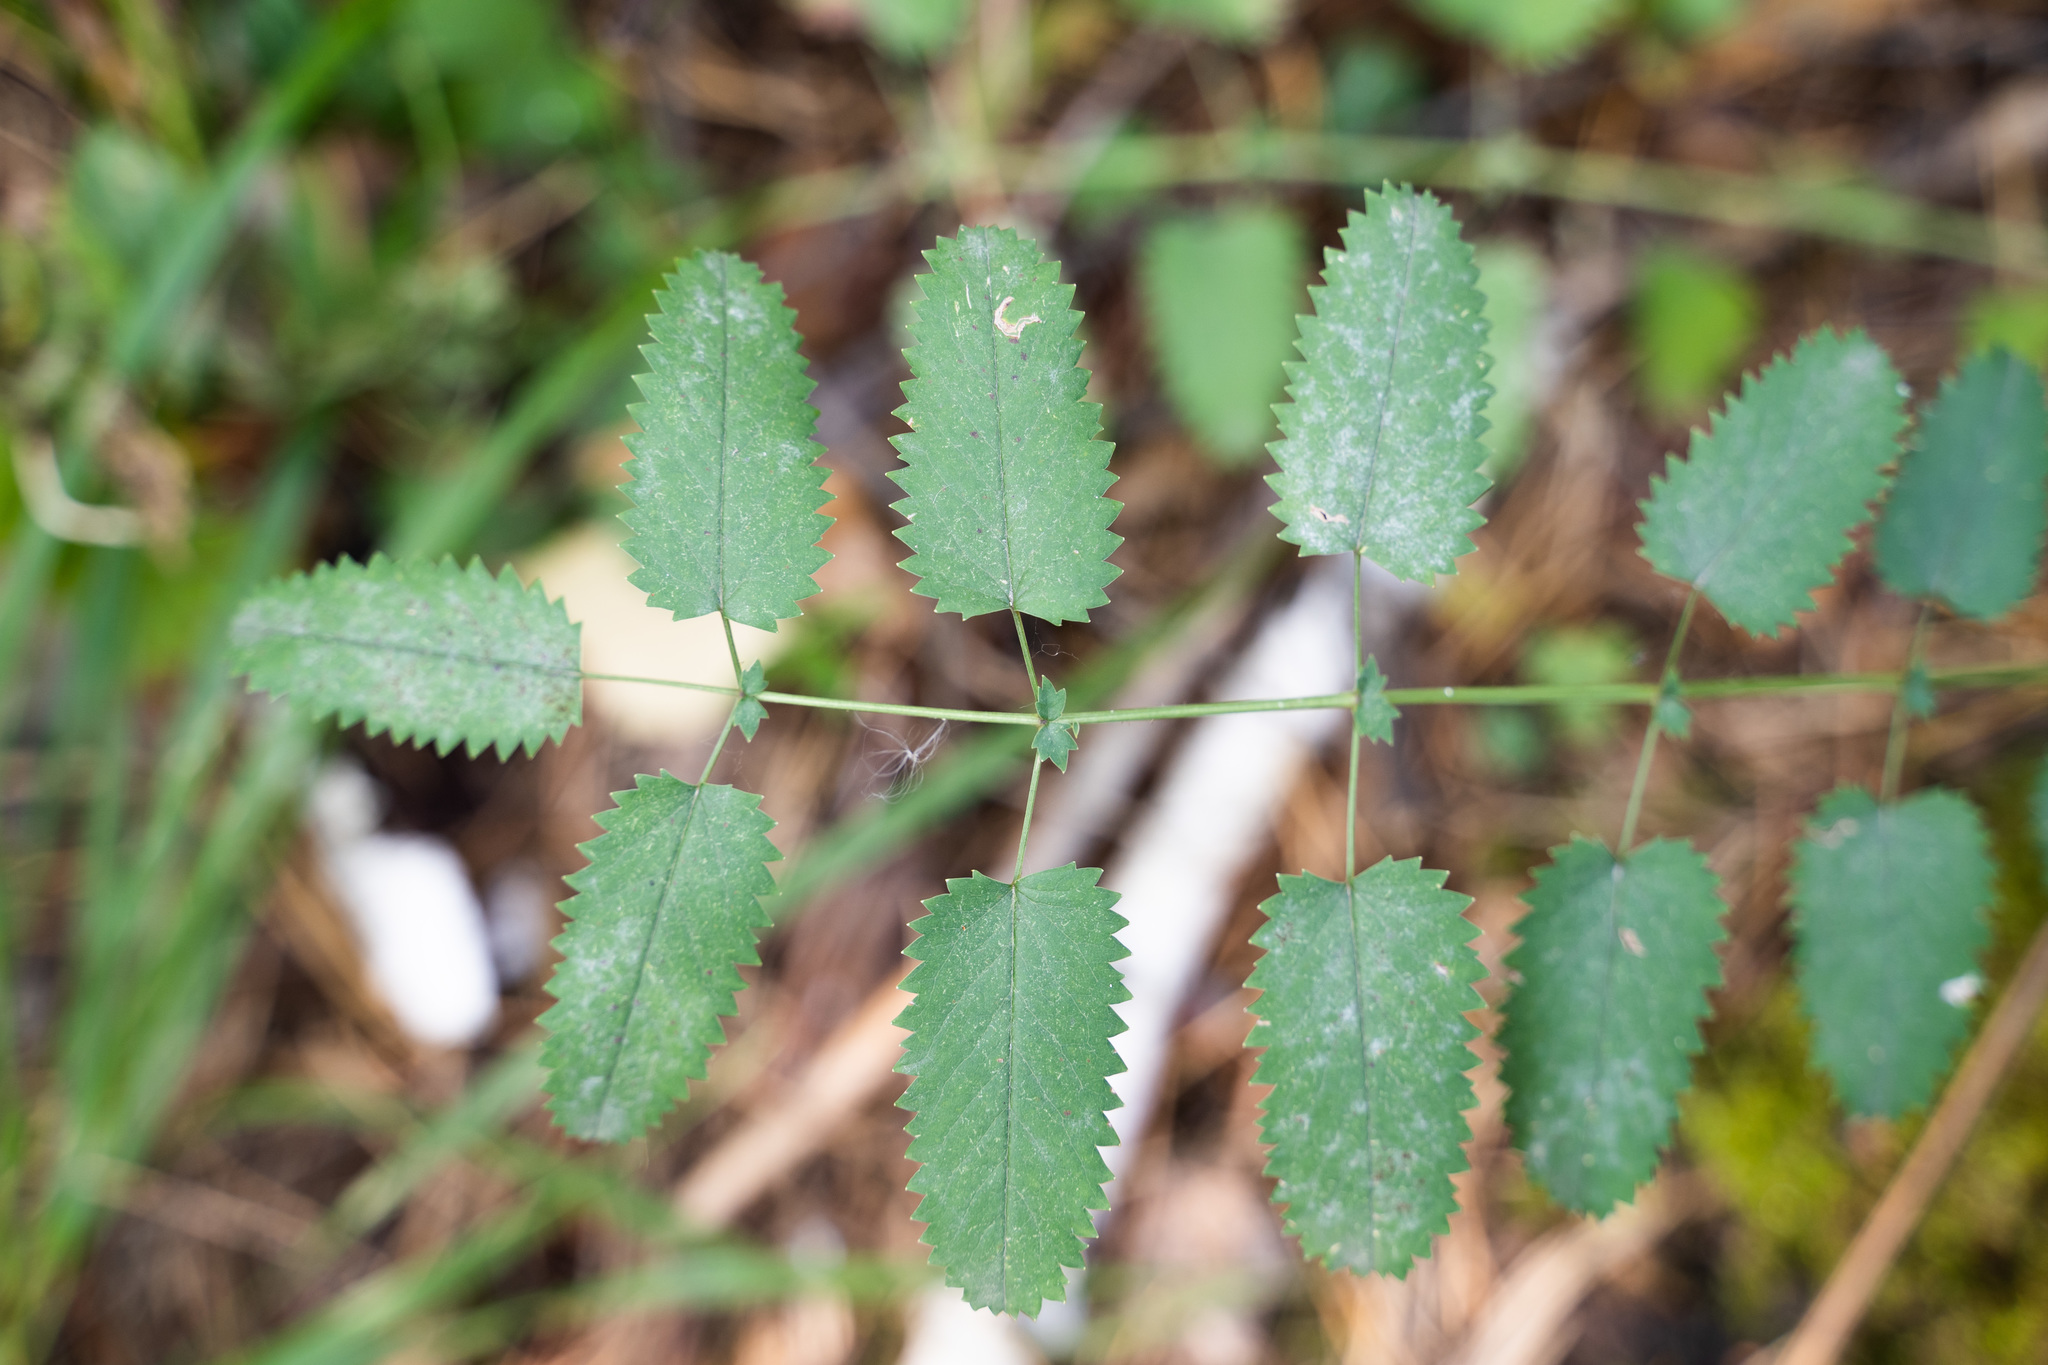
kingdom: Plantae
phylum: Tracheophyta
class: Magnoliopsida
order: Rosales
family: Rosaceae
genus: Sanguisorba
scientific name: Sanguisorba officinalis
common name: Great burnet
